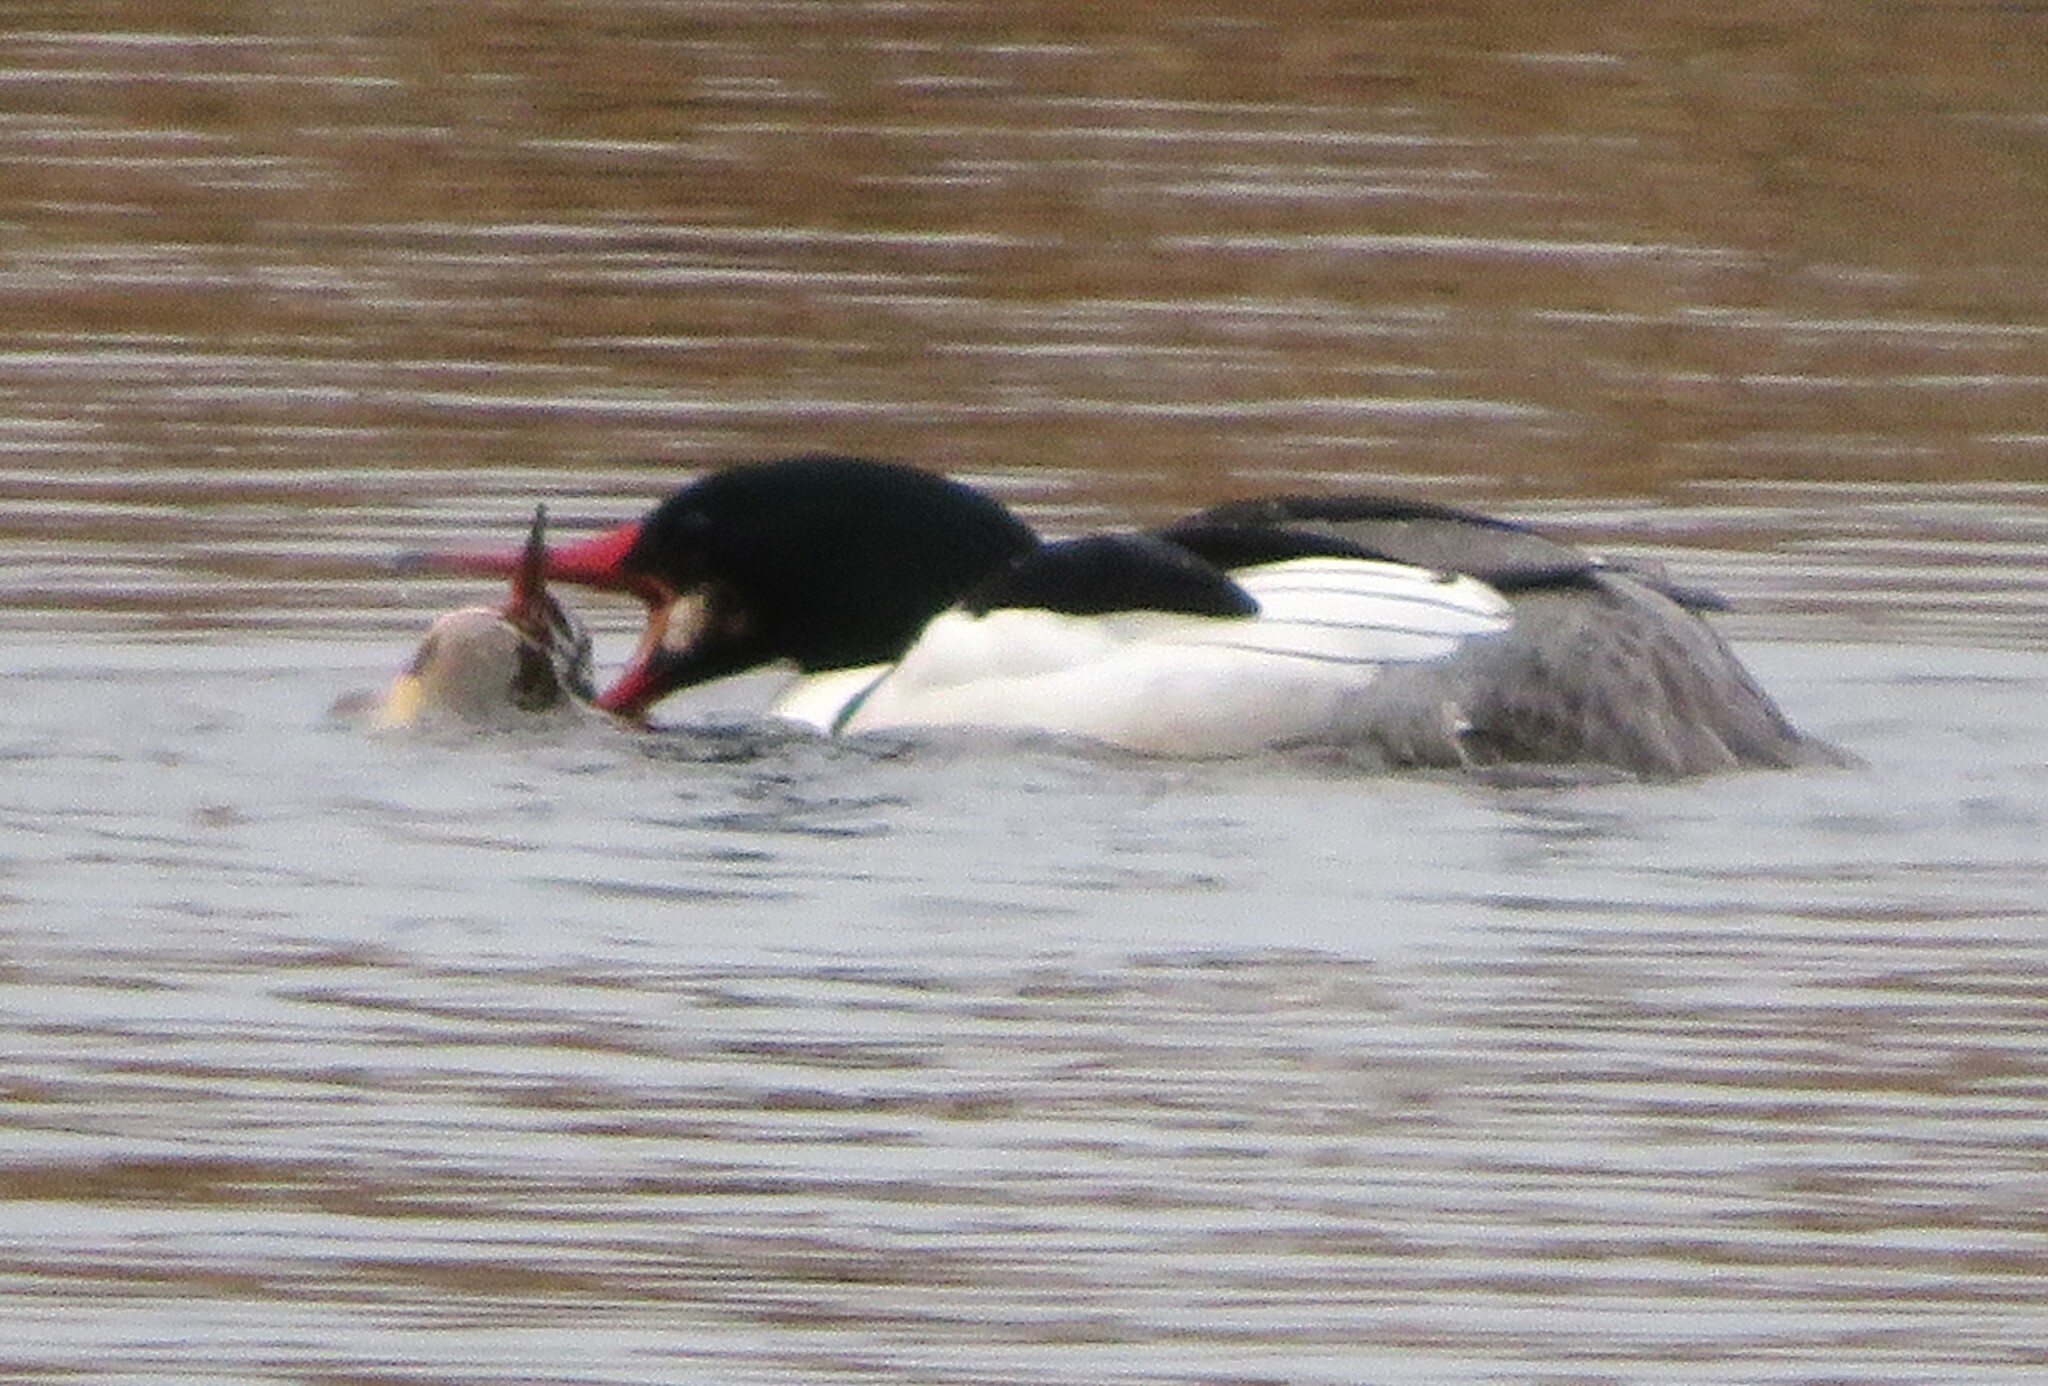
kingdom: Animalia
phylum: Chordata
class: Aves
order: Anseriformes
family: Anatidae
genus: Mergus
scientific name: Mergus merganser
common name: Common merganser
